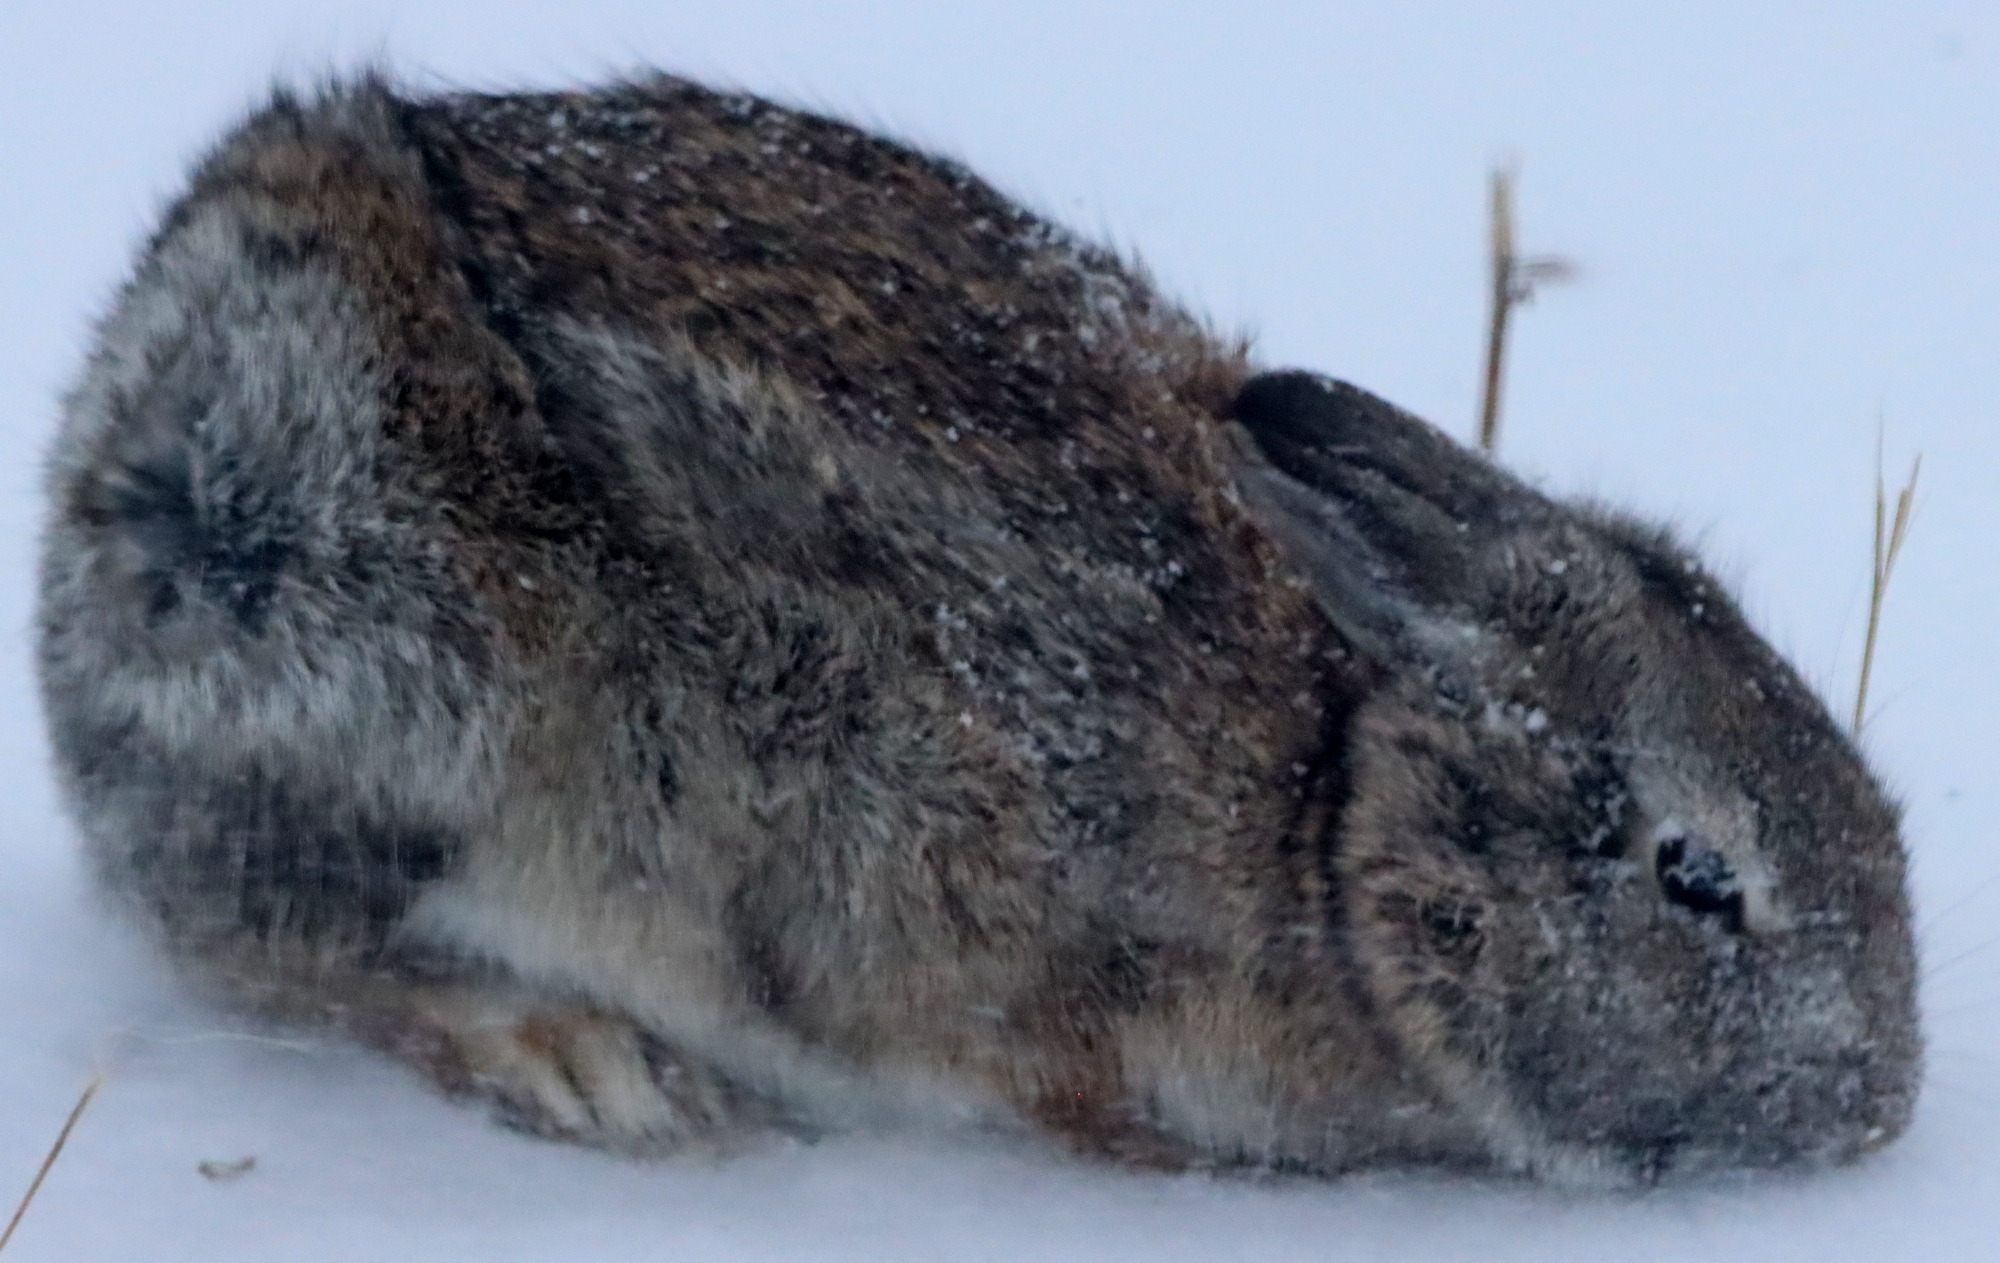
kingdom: Animalia
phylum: Chordata
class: Mammalia
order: Lagomorpha
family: Leporidae
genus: Sylvilagus
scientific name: Sylvilagus floridanus
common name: Eastern cottontail
